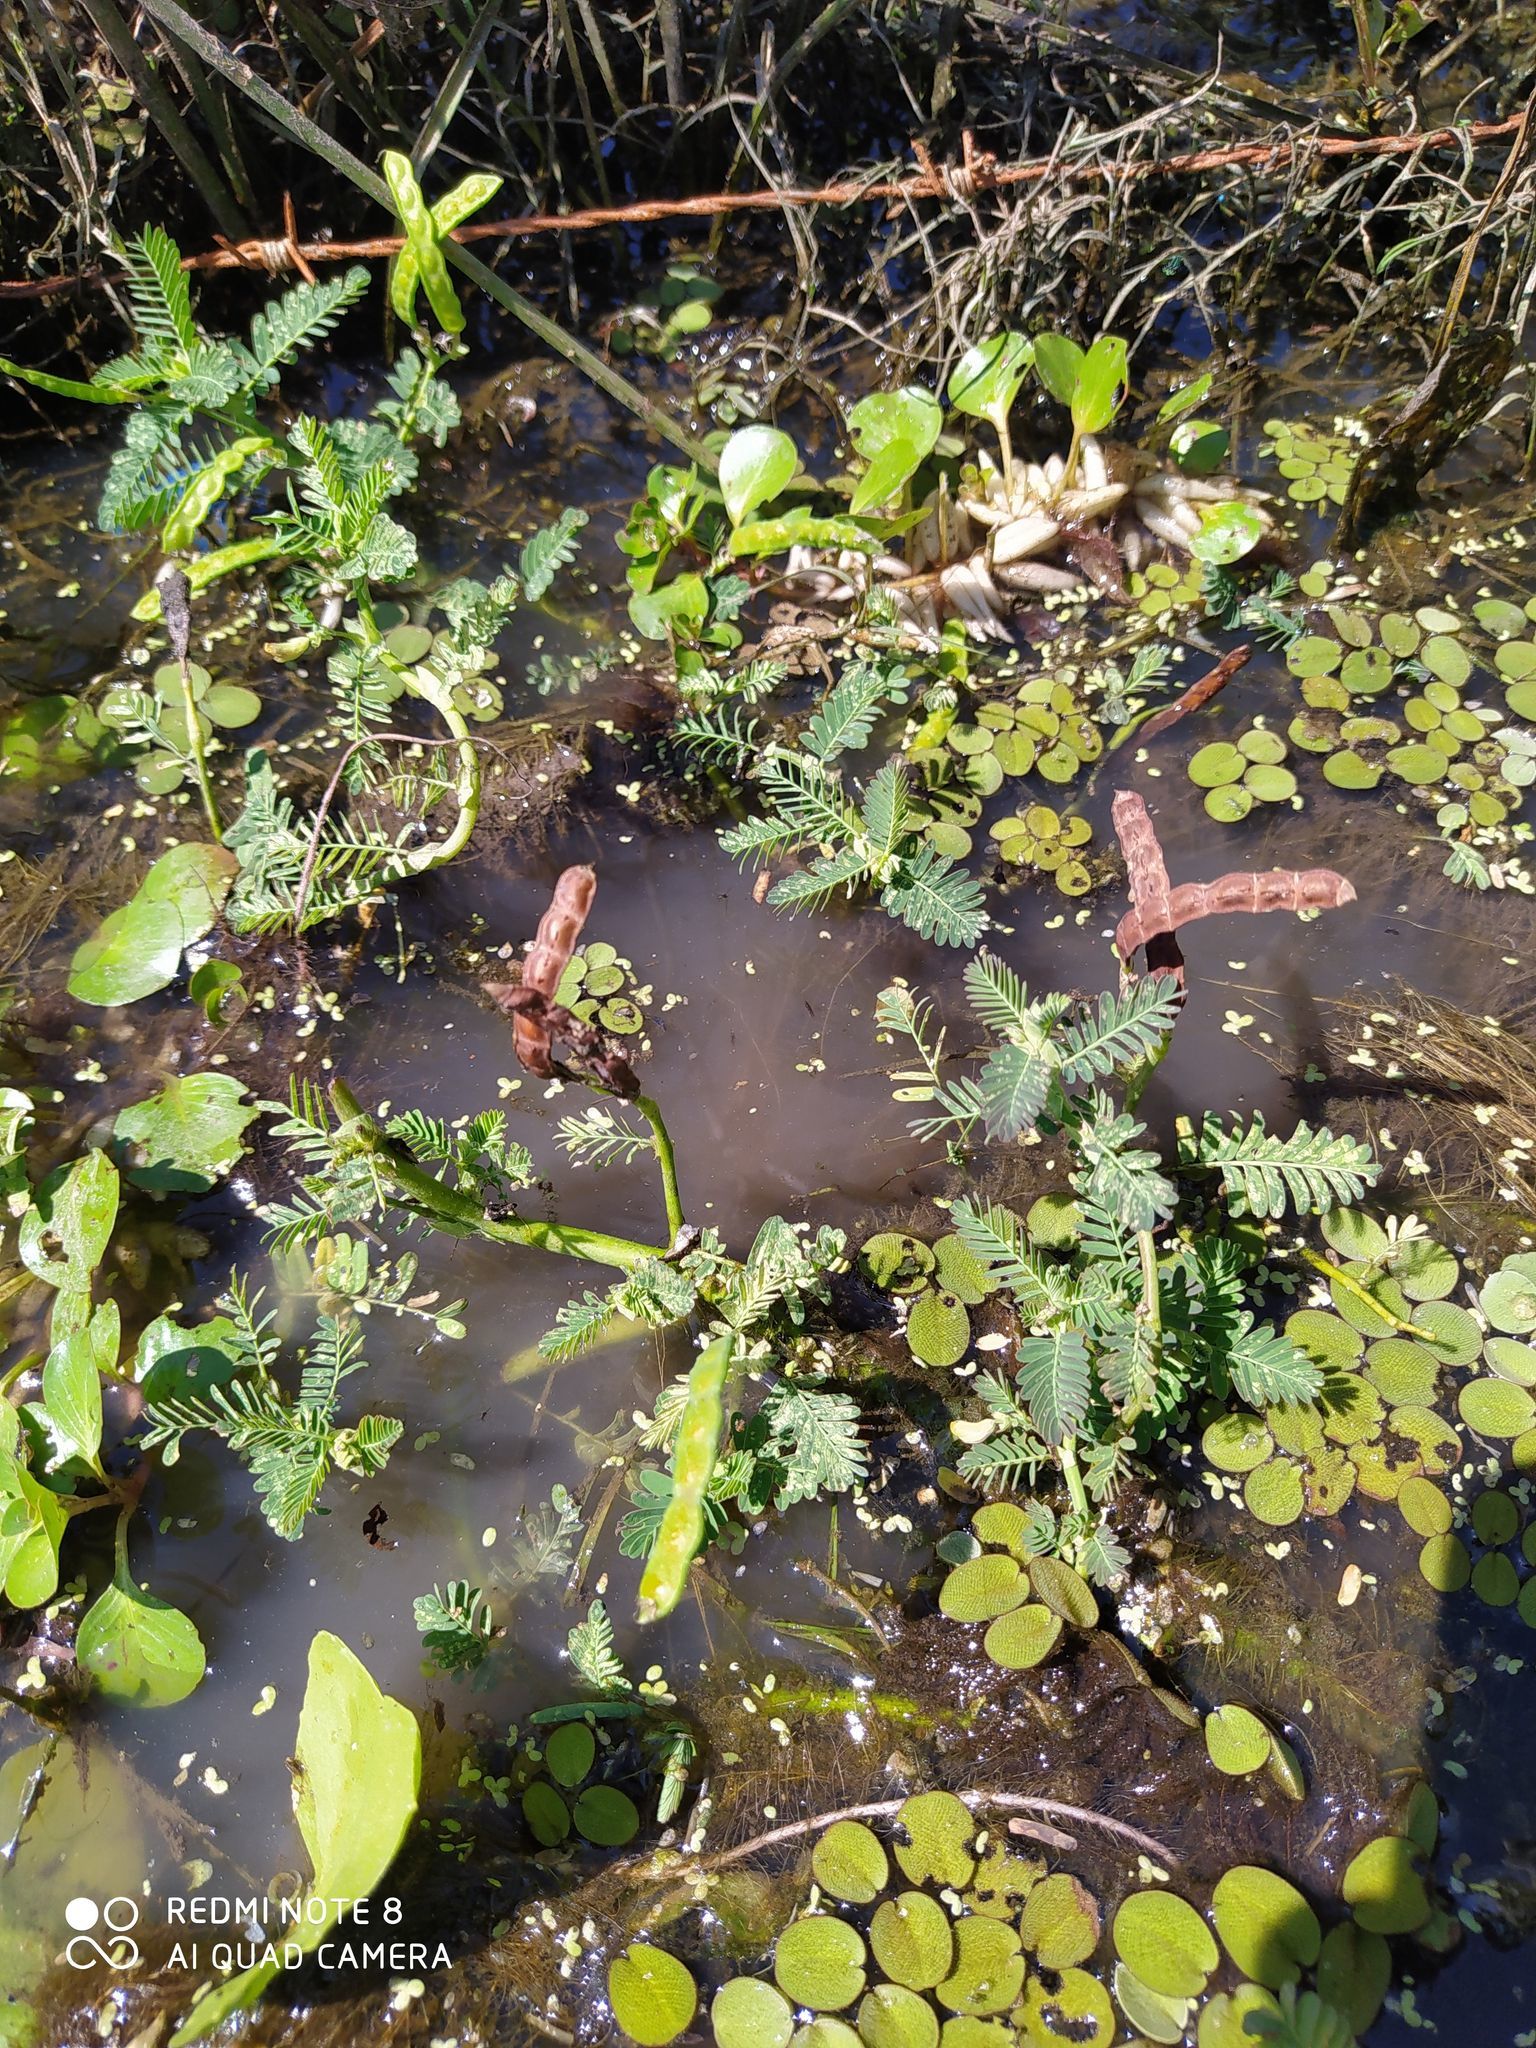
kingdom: Plantae
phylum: Tracheophyta
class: Magnoliopsida
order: Fabales
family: Fabaceae
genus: Neptunia
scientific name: Neptunia prostrata
